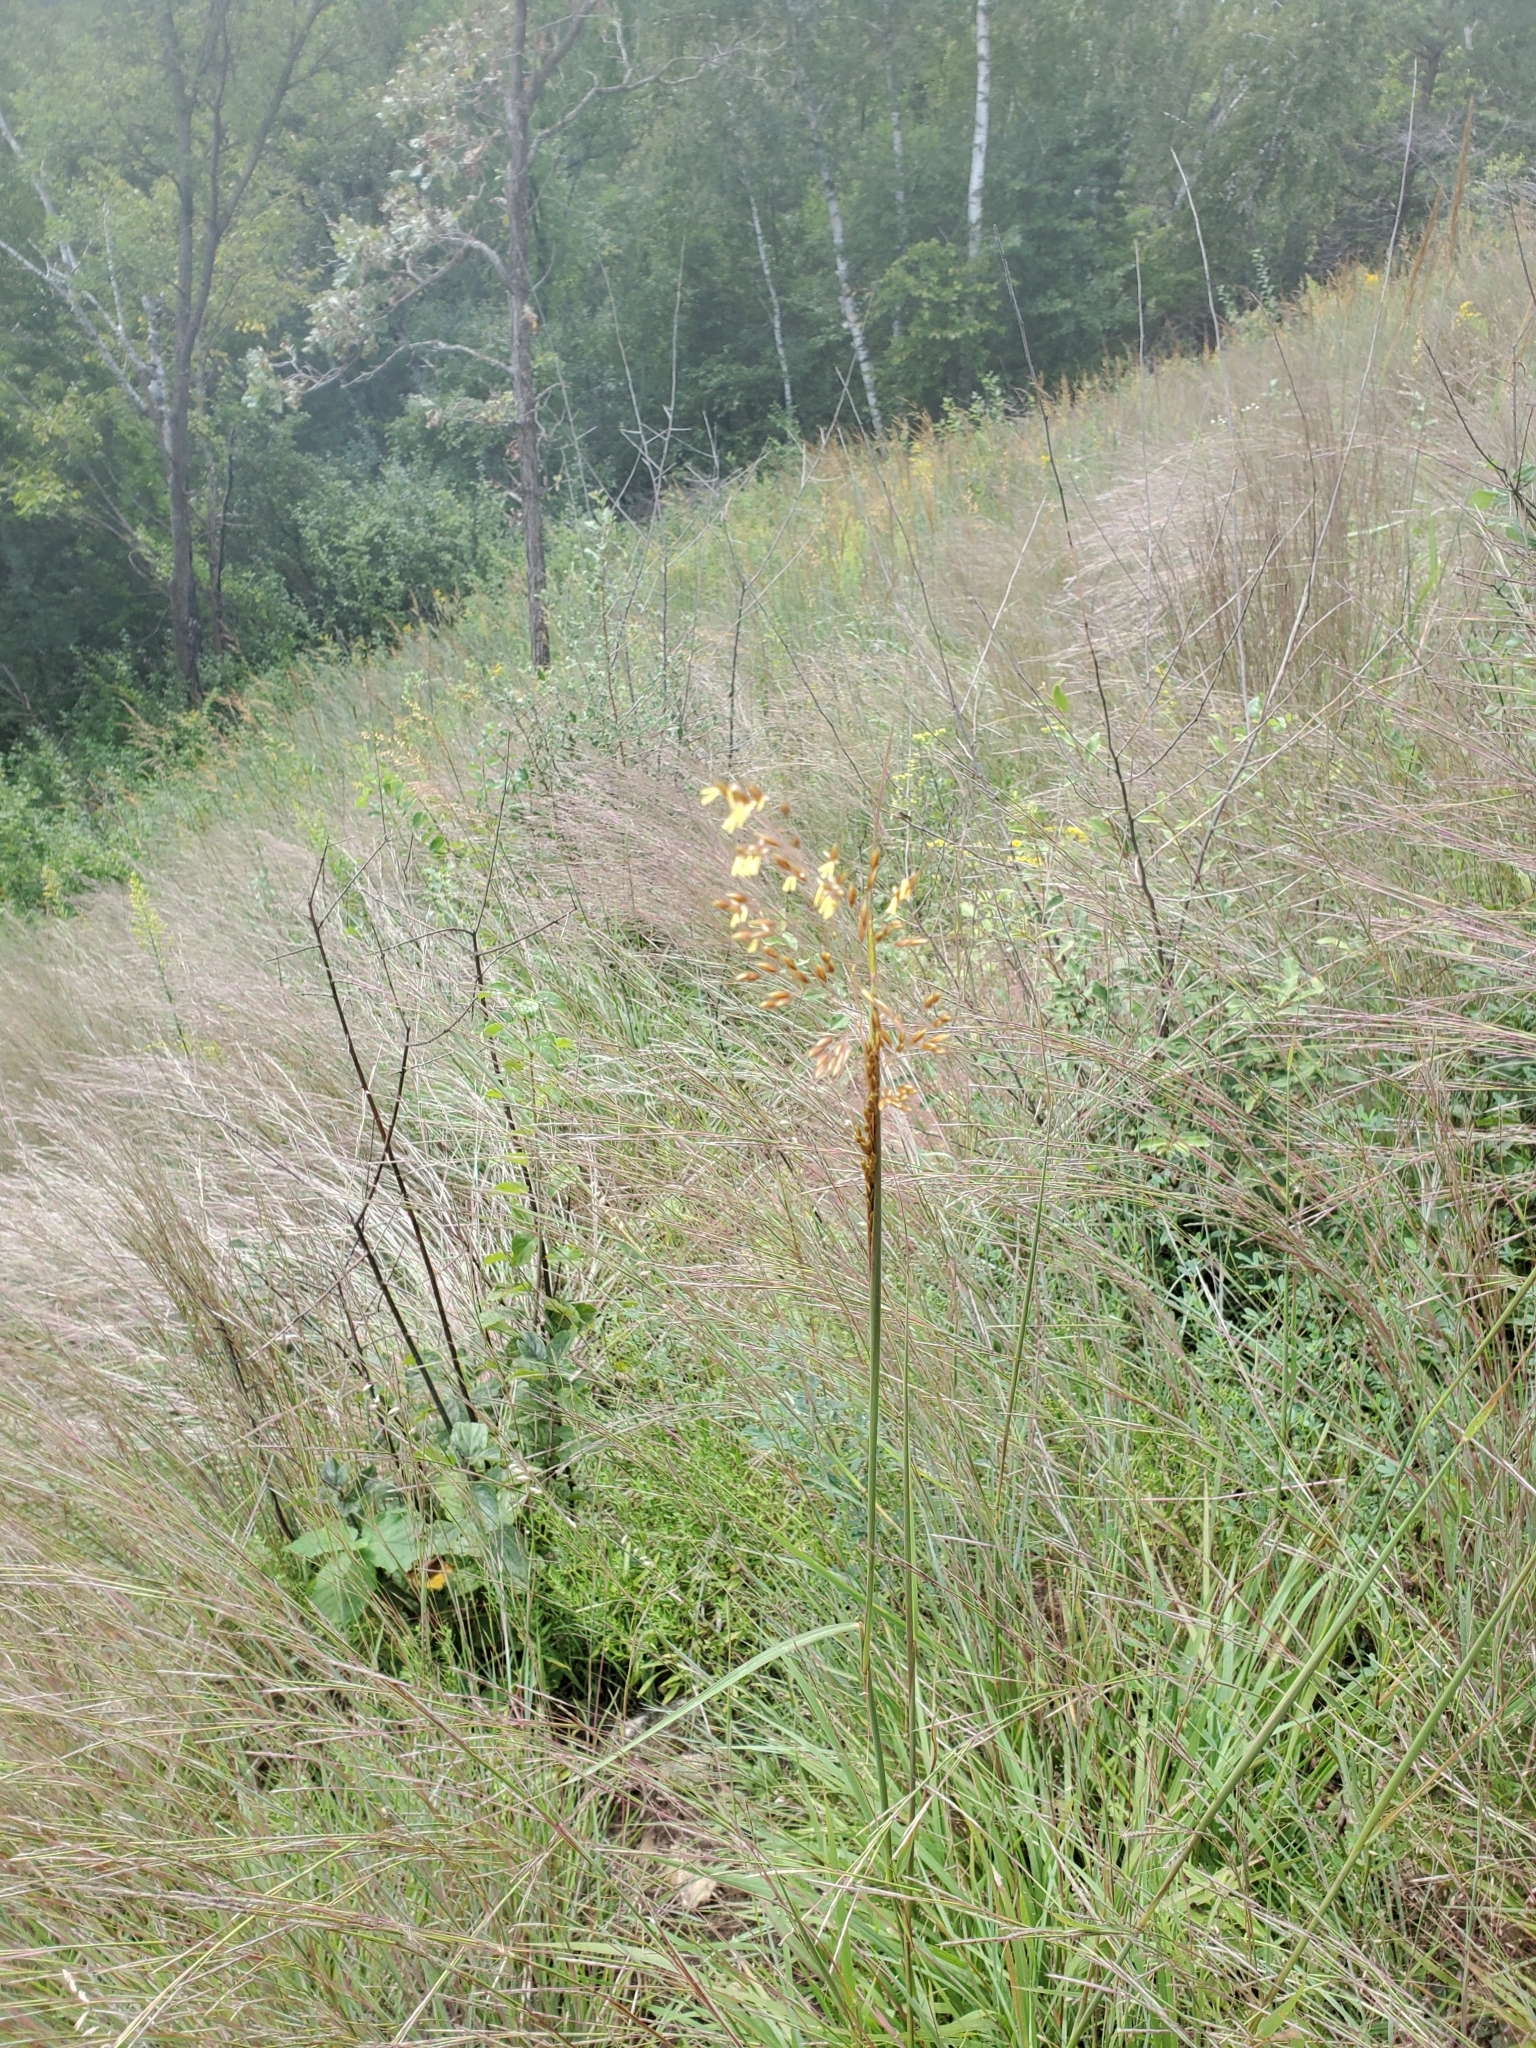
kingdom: Plantae
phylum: Tracheophyta
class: Liliopsida
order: Poales
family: Poaceae
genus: Sorghastrum
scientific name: Sorghastrum nutans
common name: Indian grass
